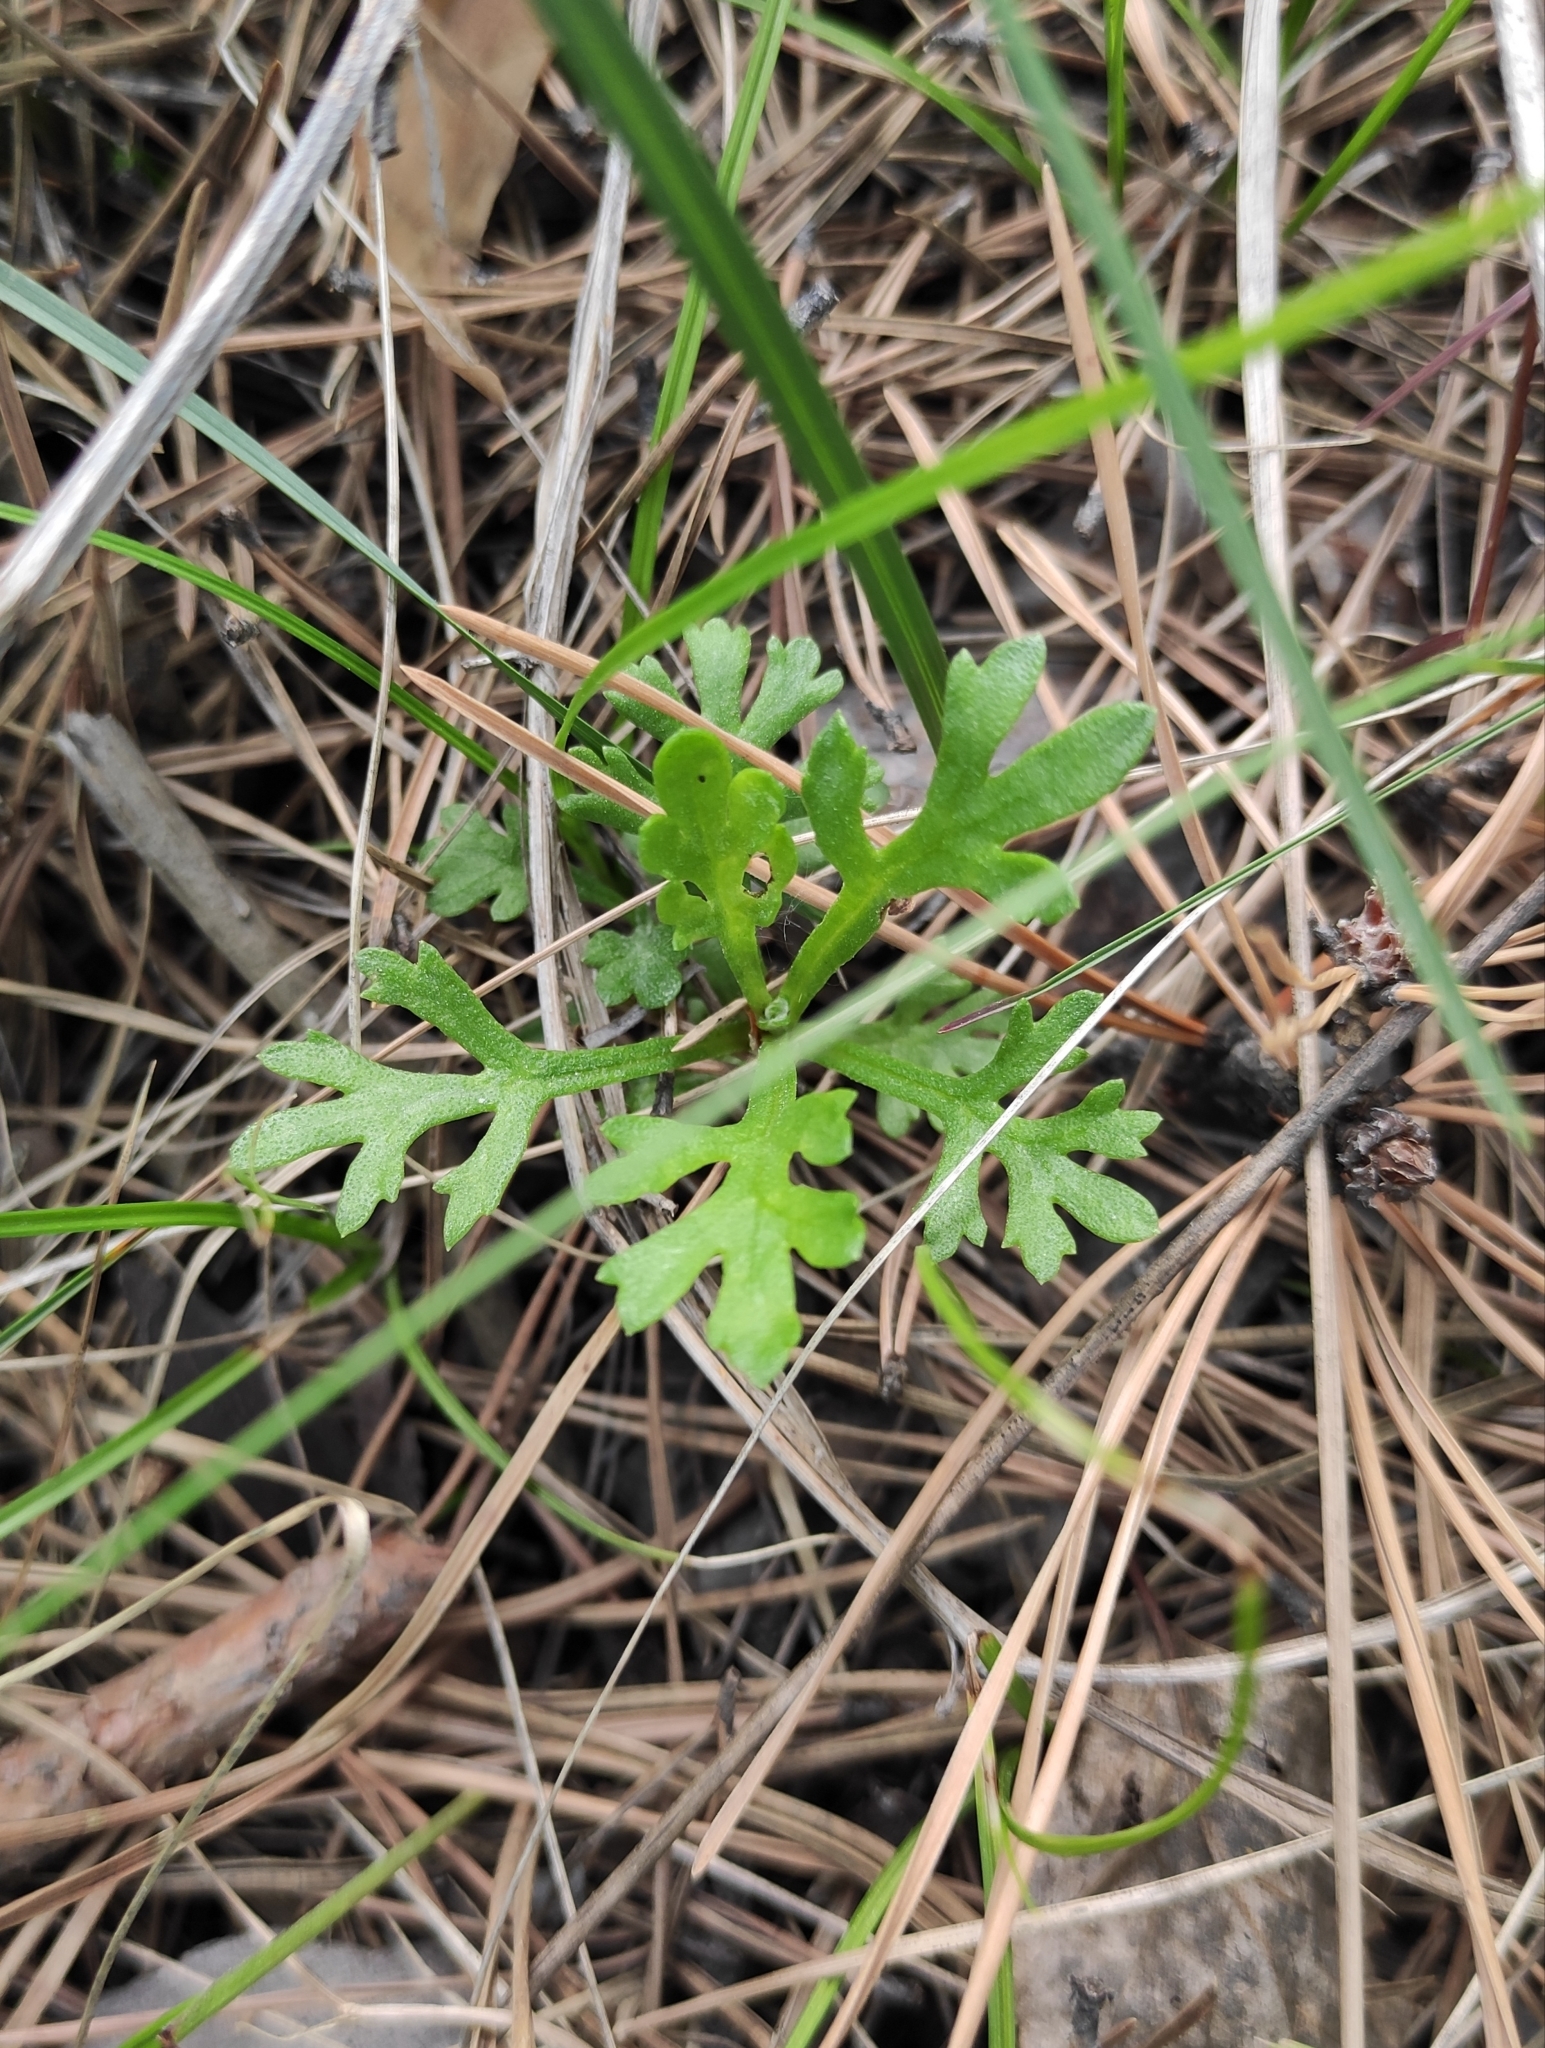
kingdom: Plantae
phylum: Tracheophyta
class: Magnoliopsida
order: Asterales
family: Asteraceae
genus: Chrysanthemum
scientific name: Chrysanthemum zawadzkii
